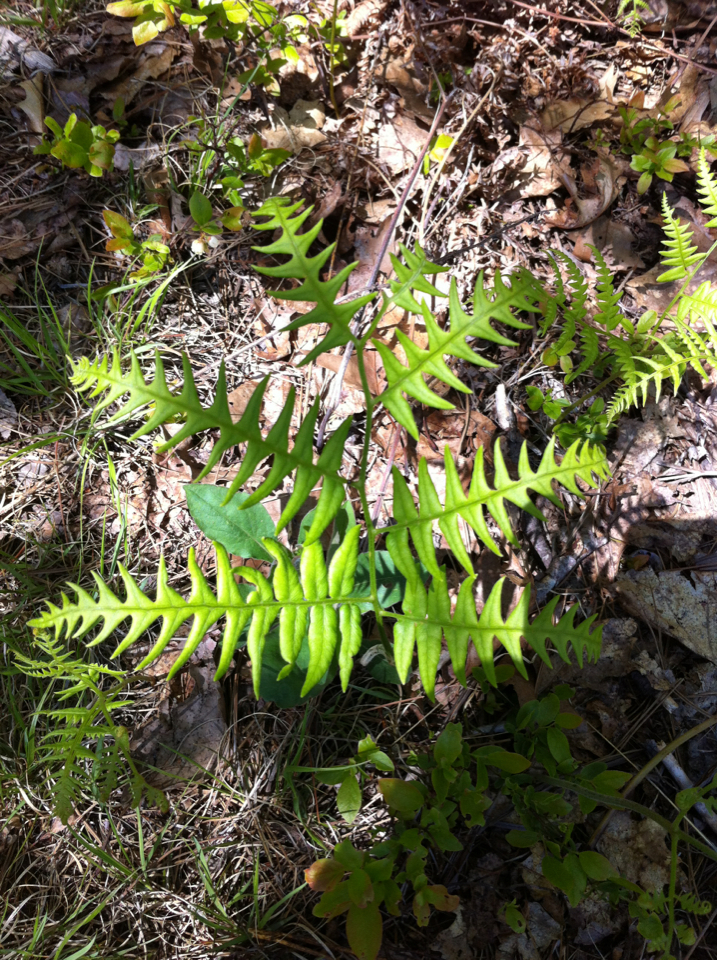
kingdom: Plantae
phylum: Tracheophyta
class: Polypodiopsida
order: Polypodiales
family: Dennstaedtiaceae
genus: Pteridium
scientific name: Pteridium aquilinum
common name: Bracken
